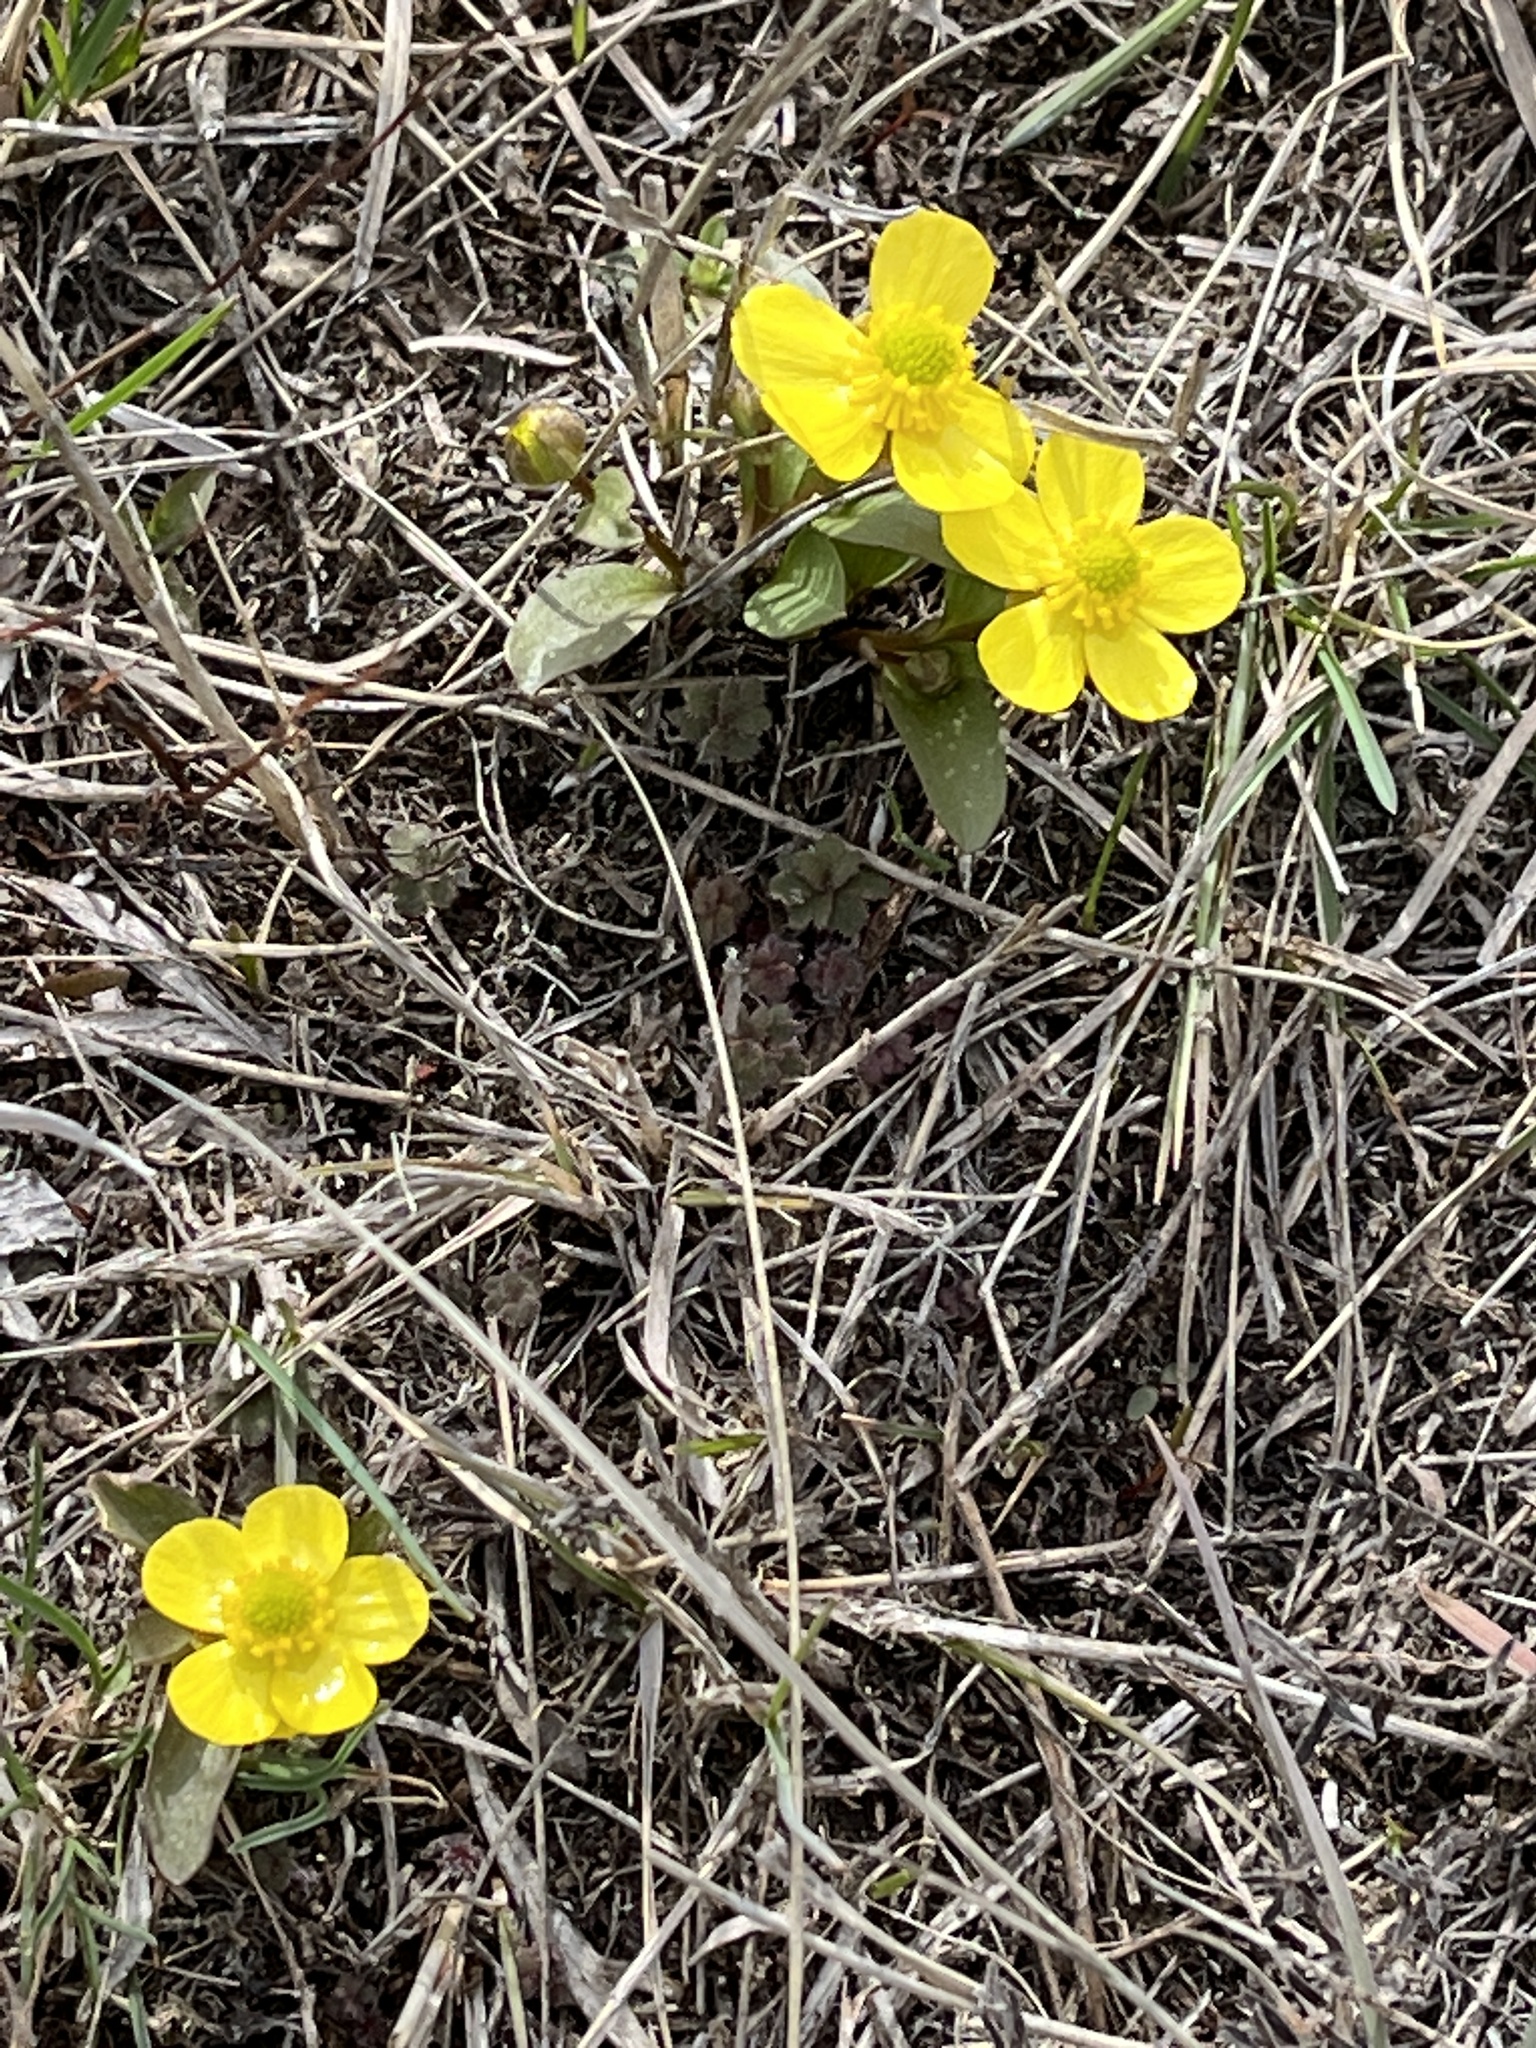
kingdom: Plantae
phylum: Tracheophyta
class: Magnoliopsida
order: Ranunculales
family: Ranunculaceae
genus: Ranunculus
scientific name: Ranunculus glaberrimus
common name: Sagebrush buttercup
